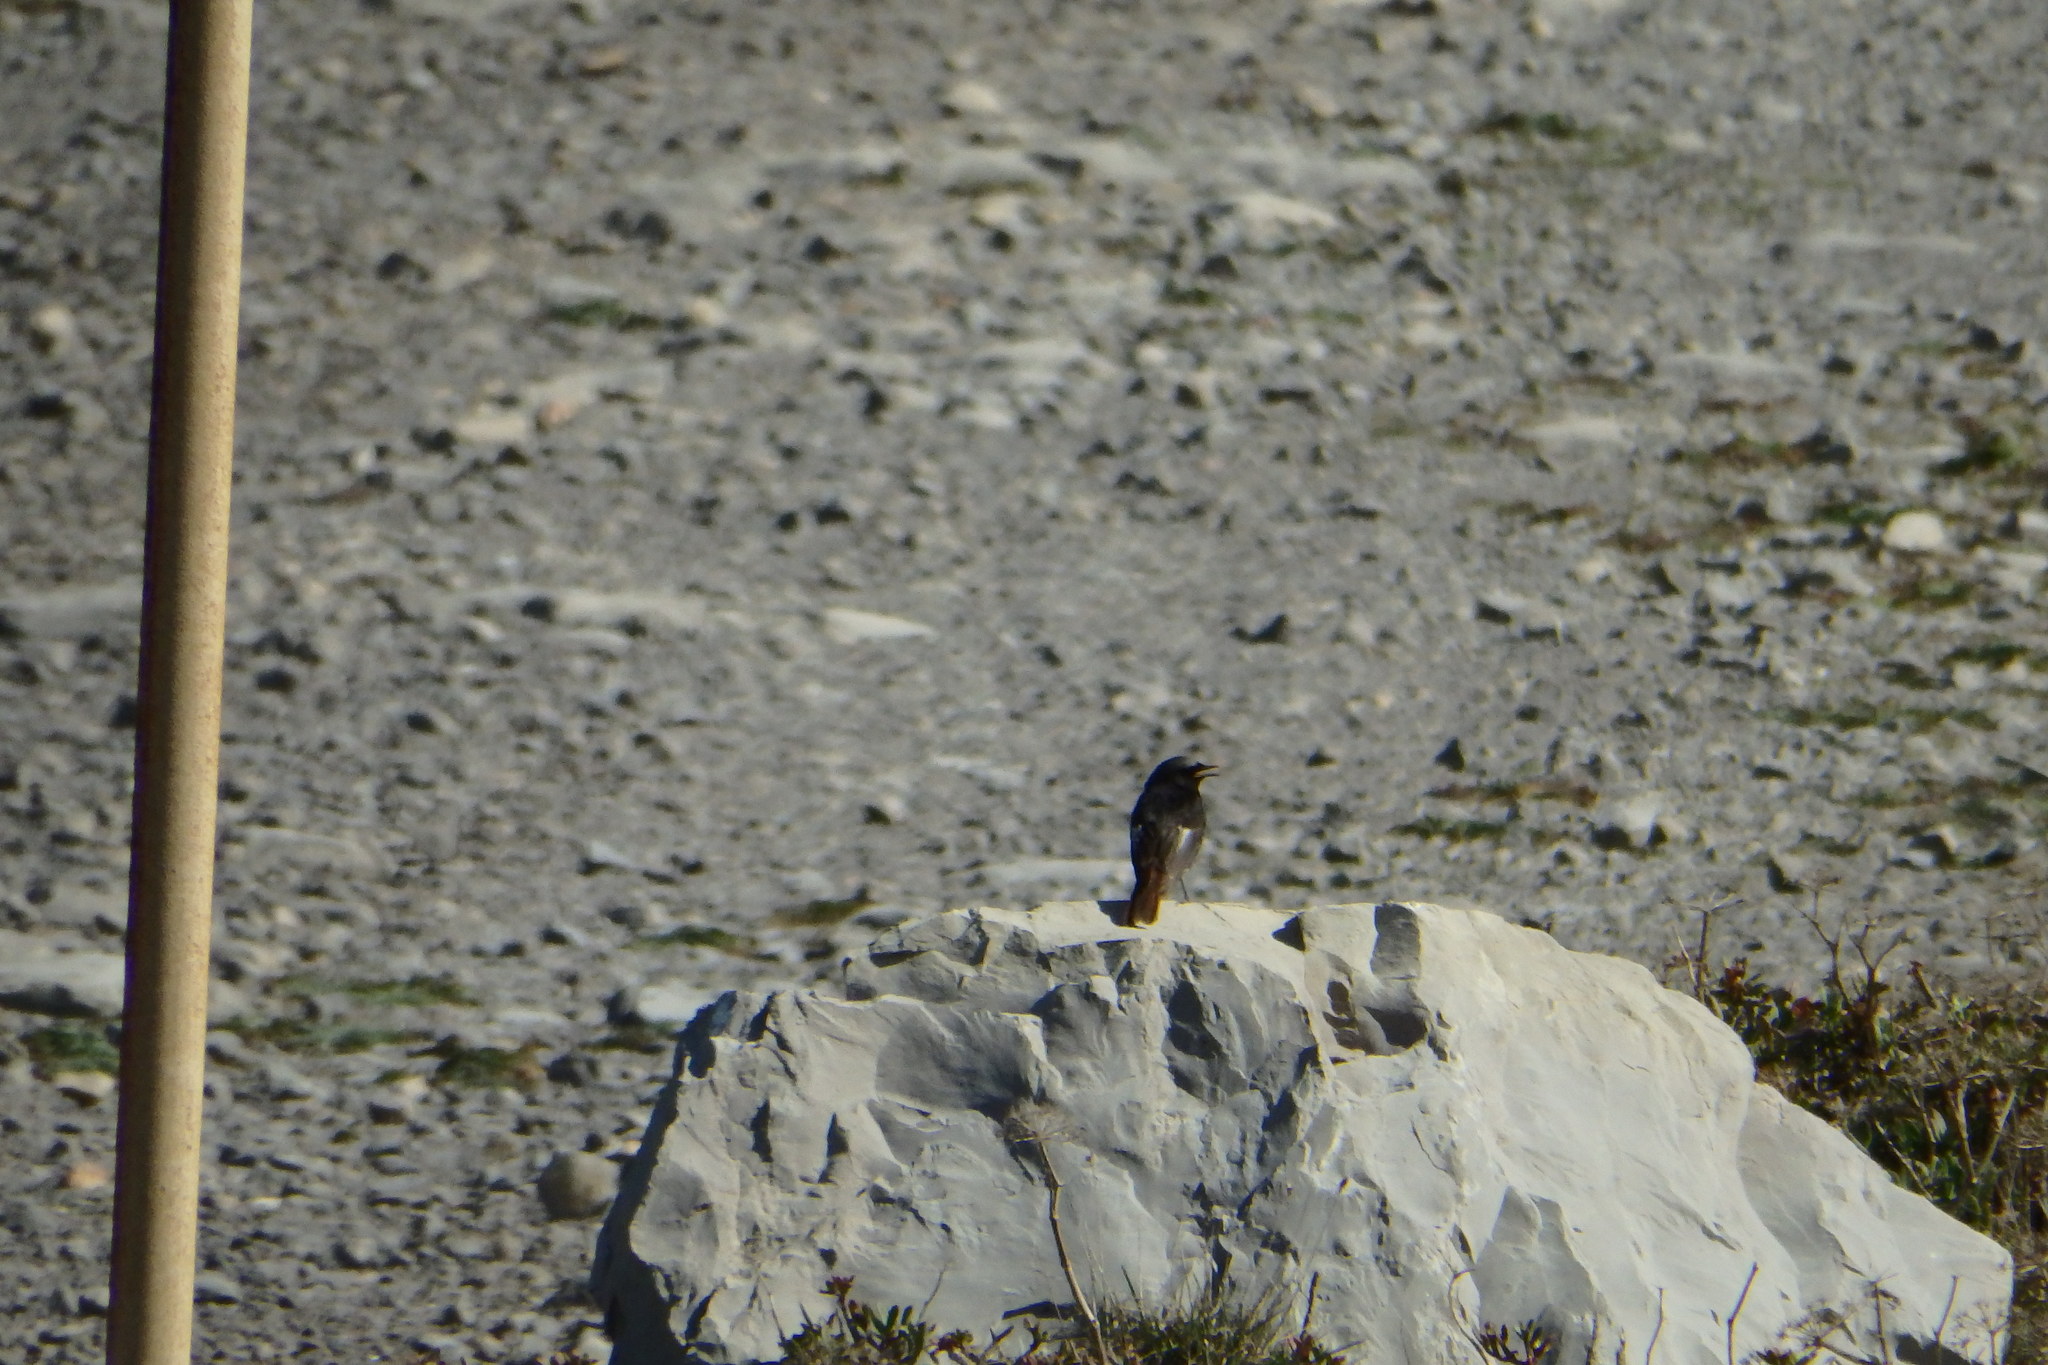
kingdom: Animalia
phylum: Chordata
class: Aves
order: Passeriformes
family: Muscicapidae
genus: Phoenicurus
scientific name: Phoenicurus ochruros
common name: Black redstart
